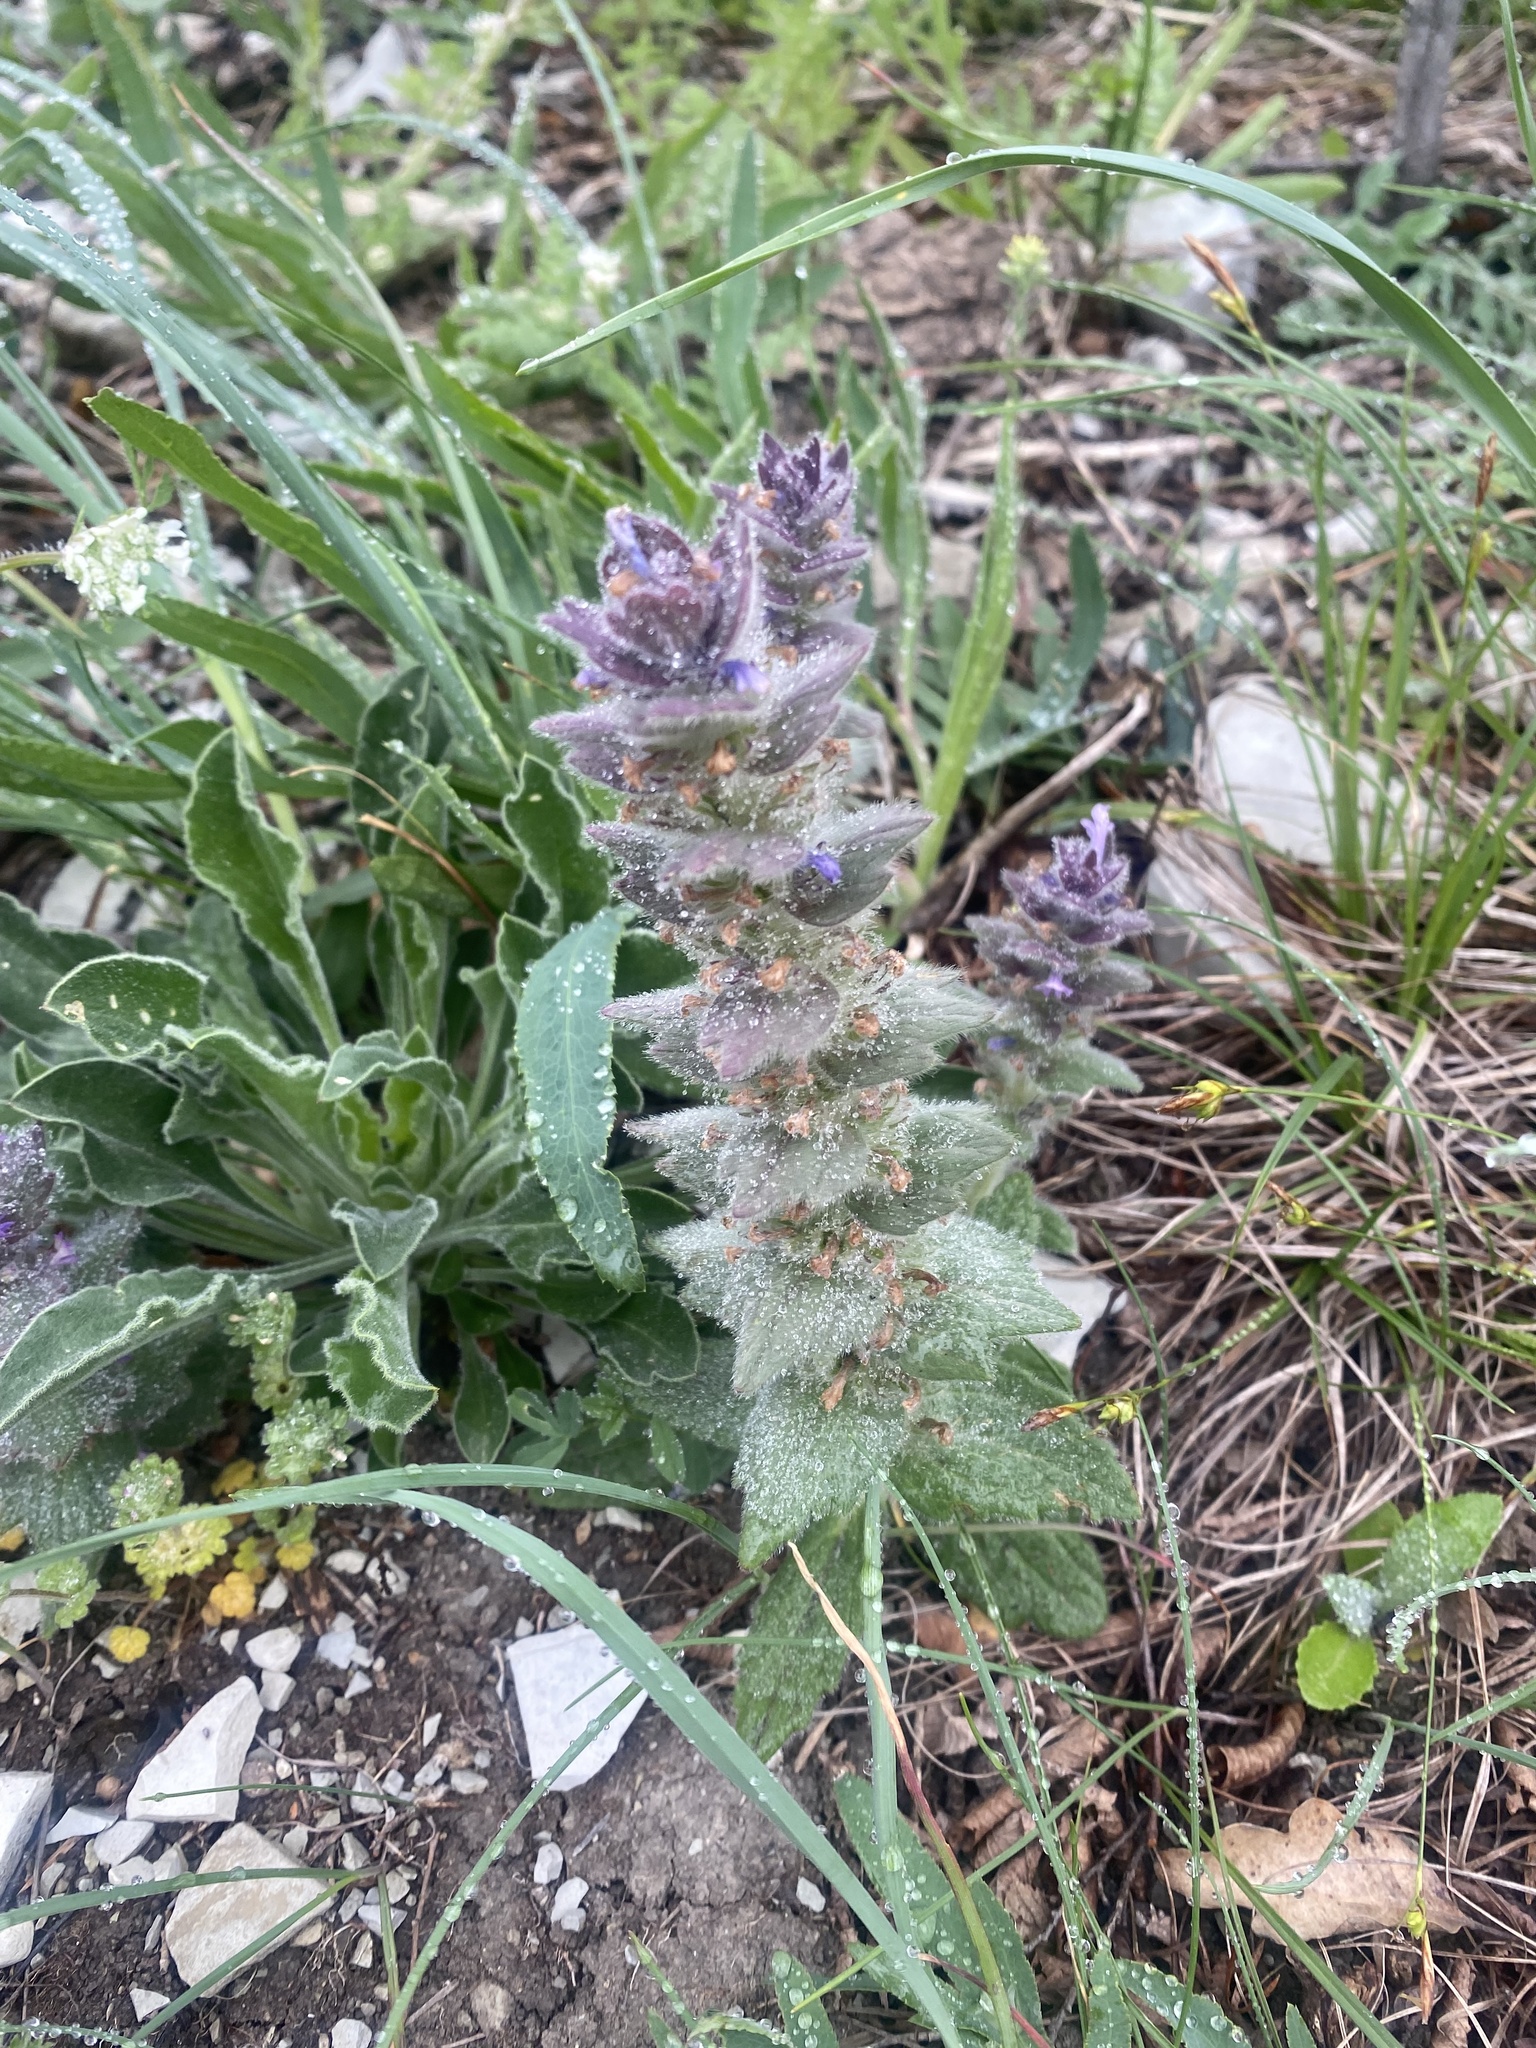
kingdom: Plantae
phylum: Tracheophyta
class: Magnoliopsida
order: Lamiales
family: Lamiaceae
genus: Ajuga
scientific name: Ajuga orientalis
